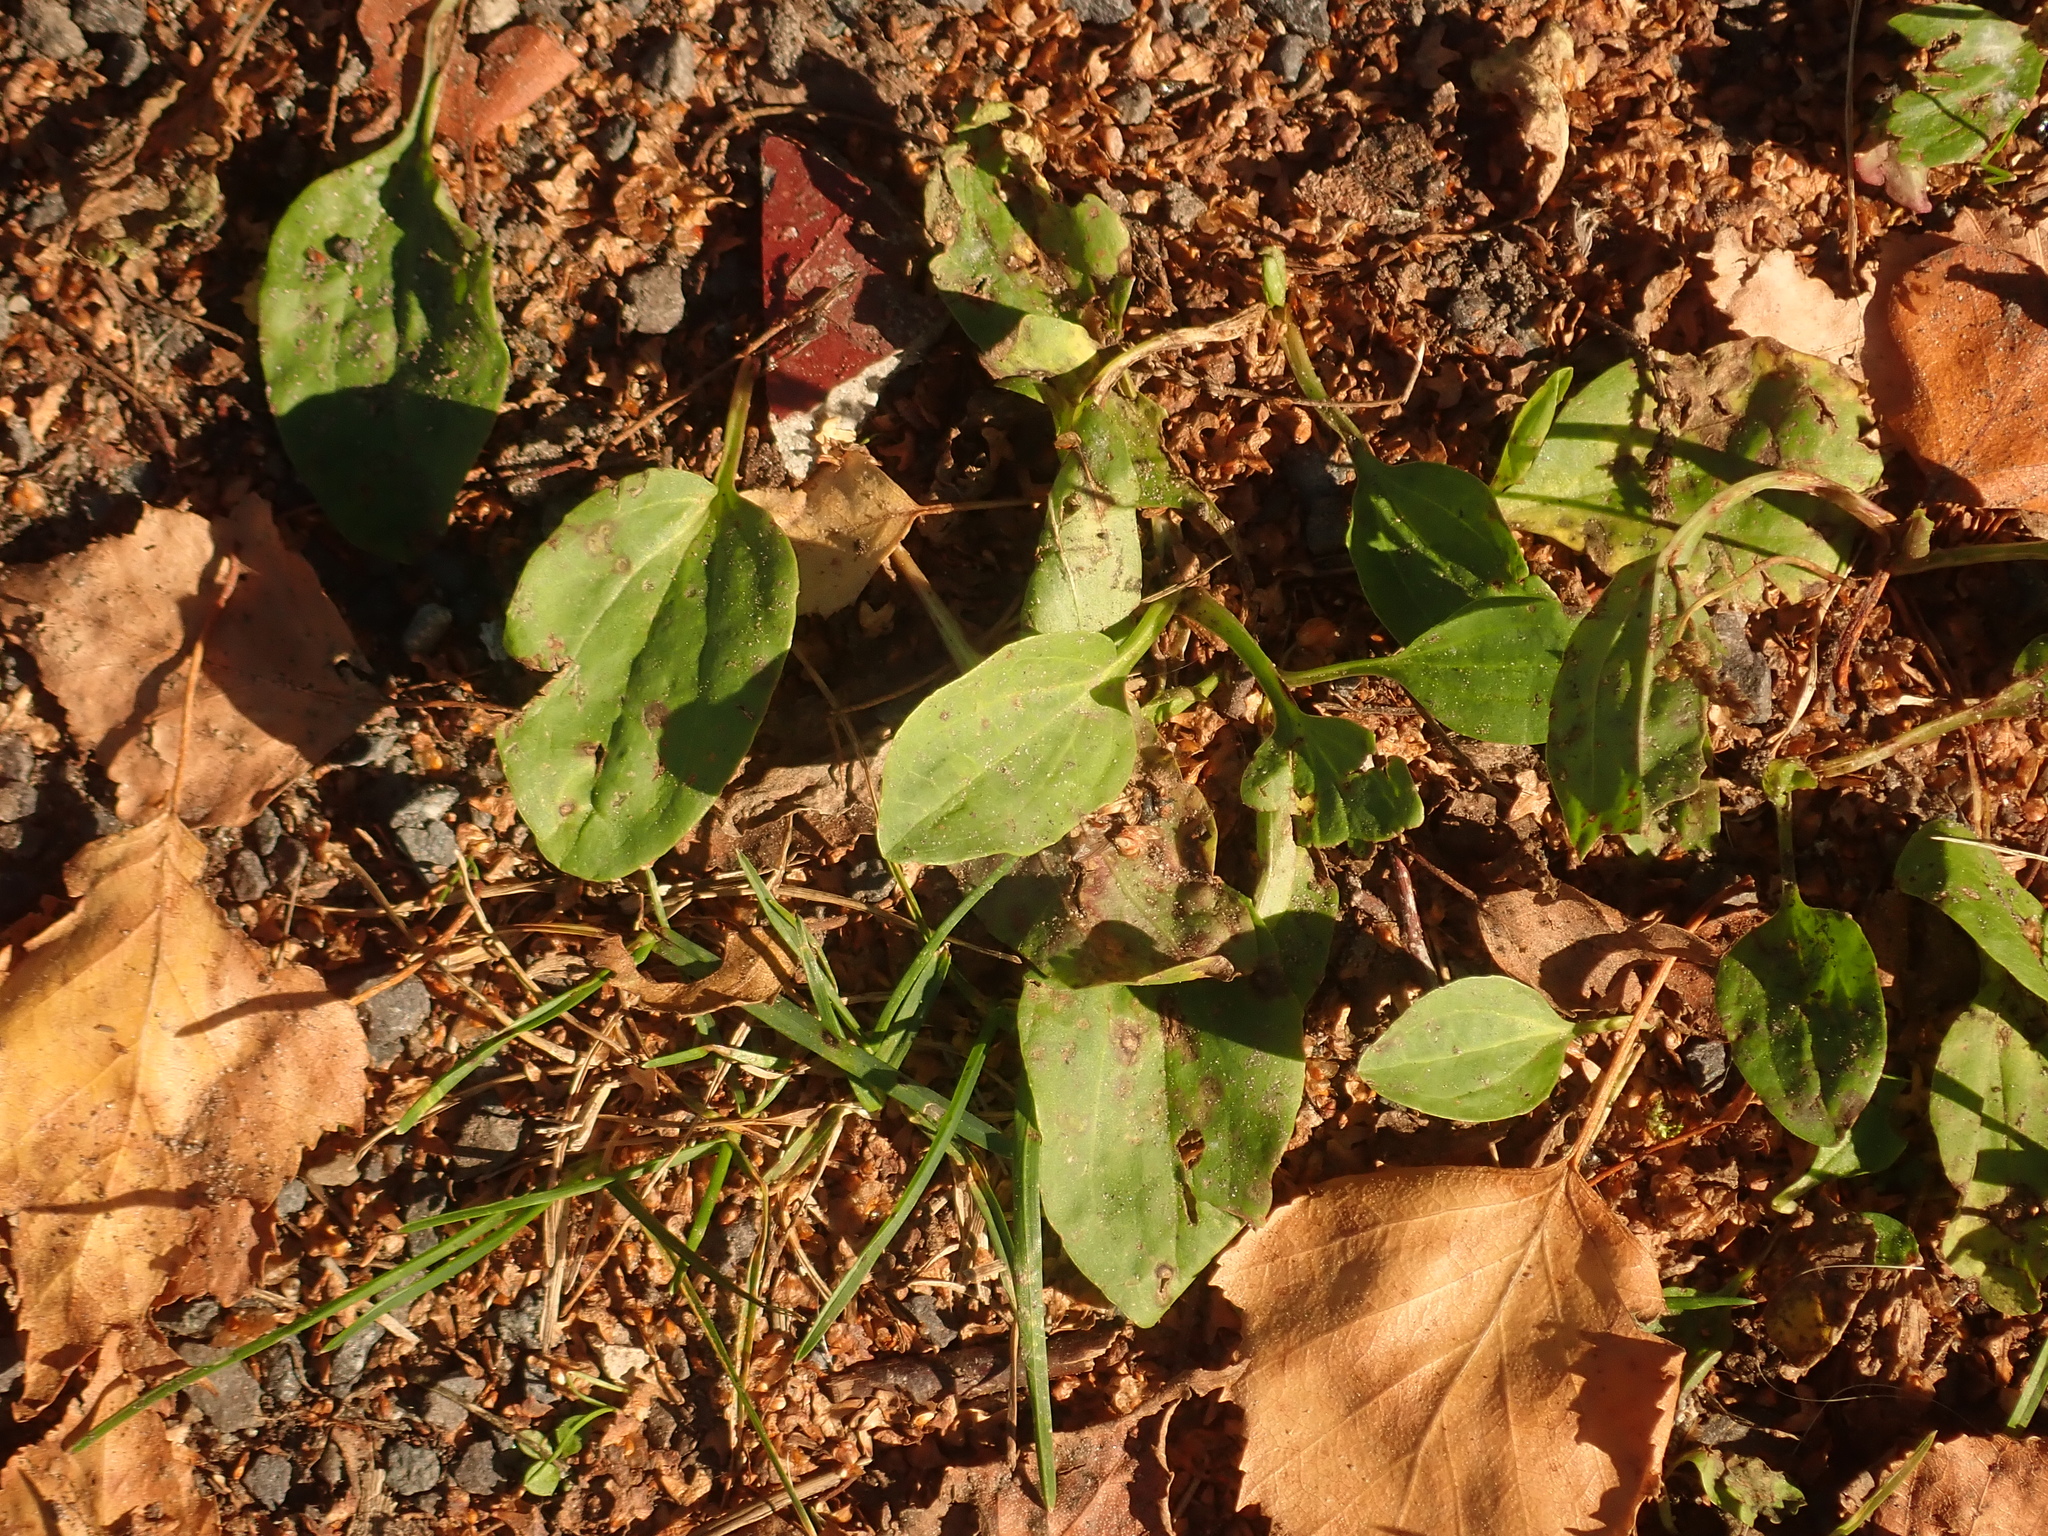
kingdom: Plantae
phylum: Tracheophyta
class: Magnoliopsida
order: Lamiales
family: Plantaginaceae
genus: Plantago
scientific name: Plantago major
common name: Common plantain
